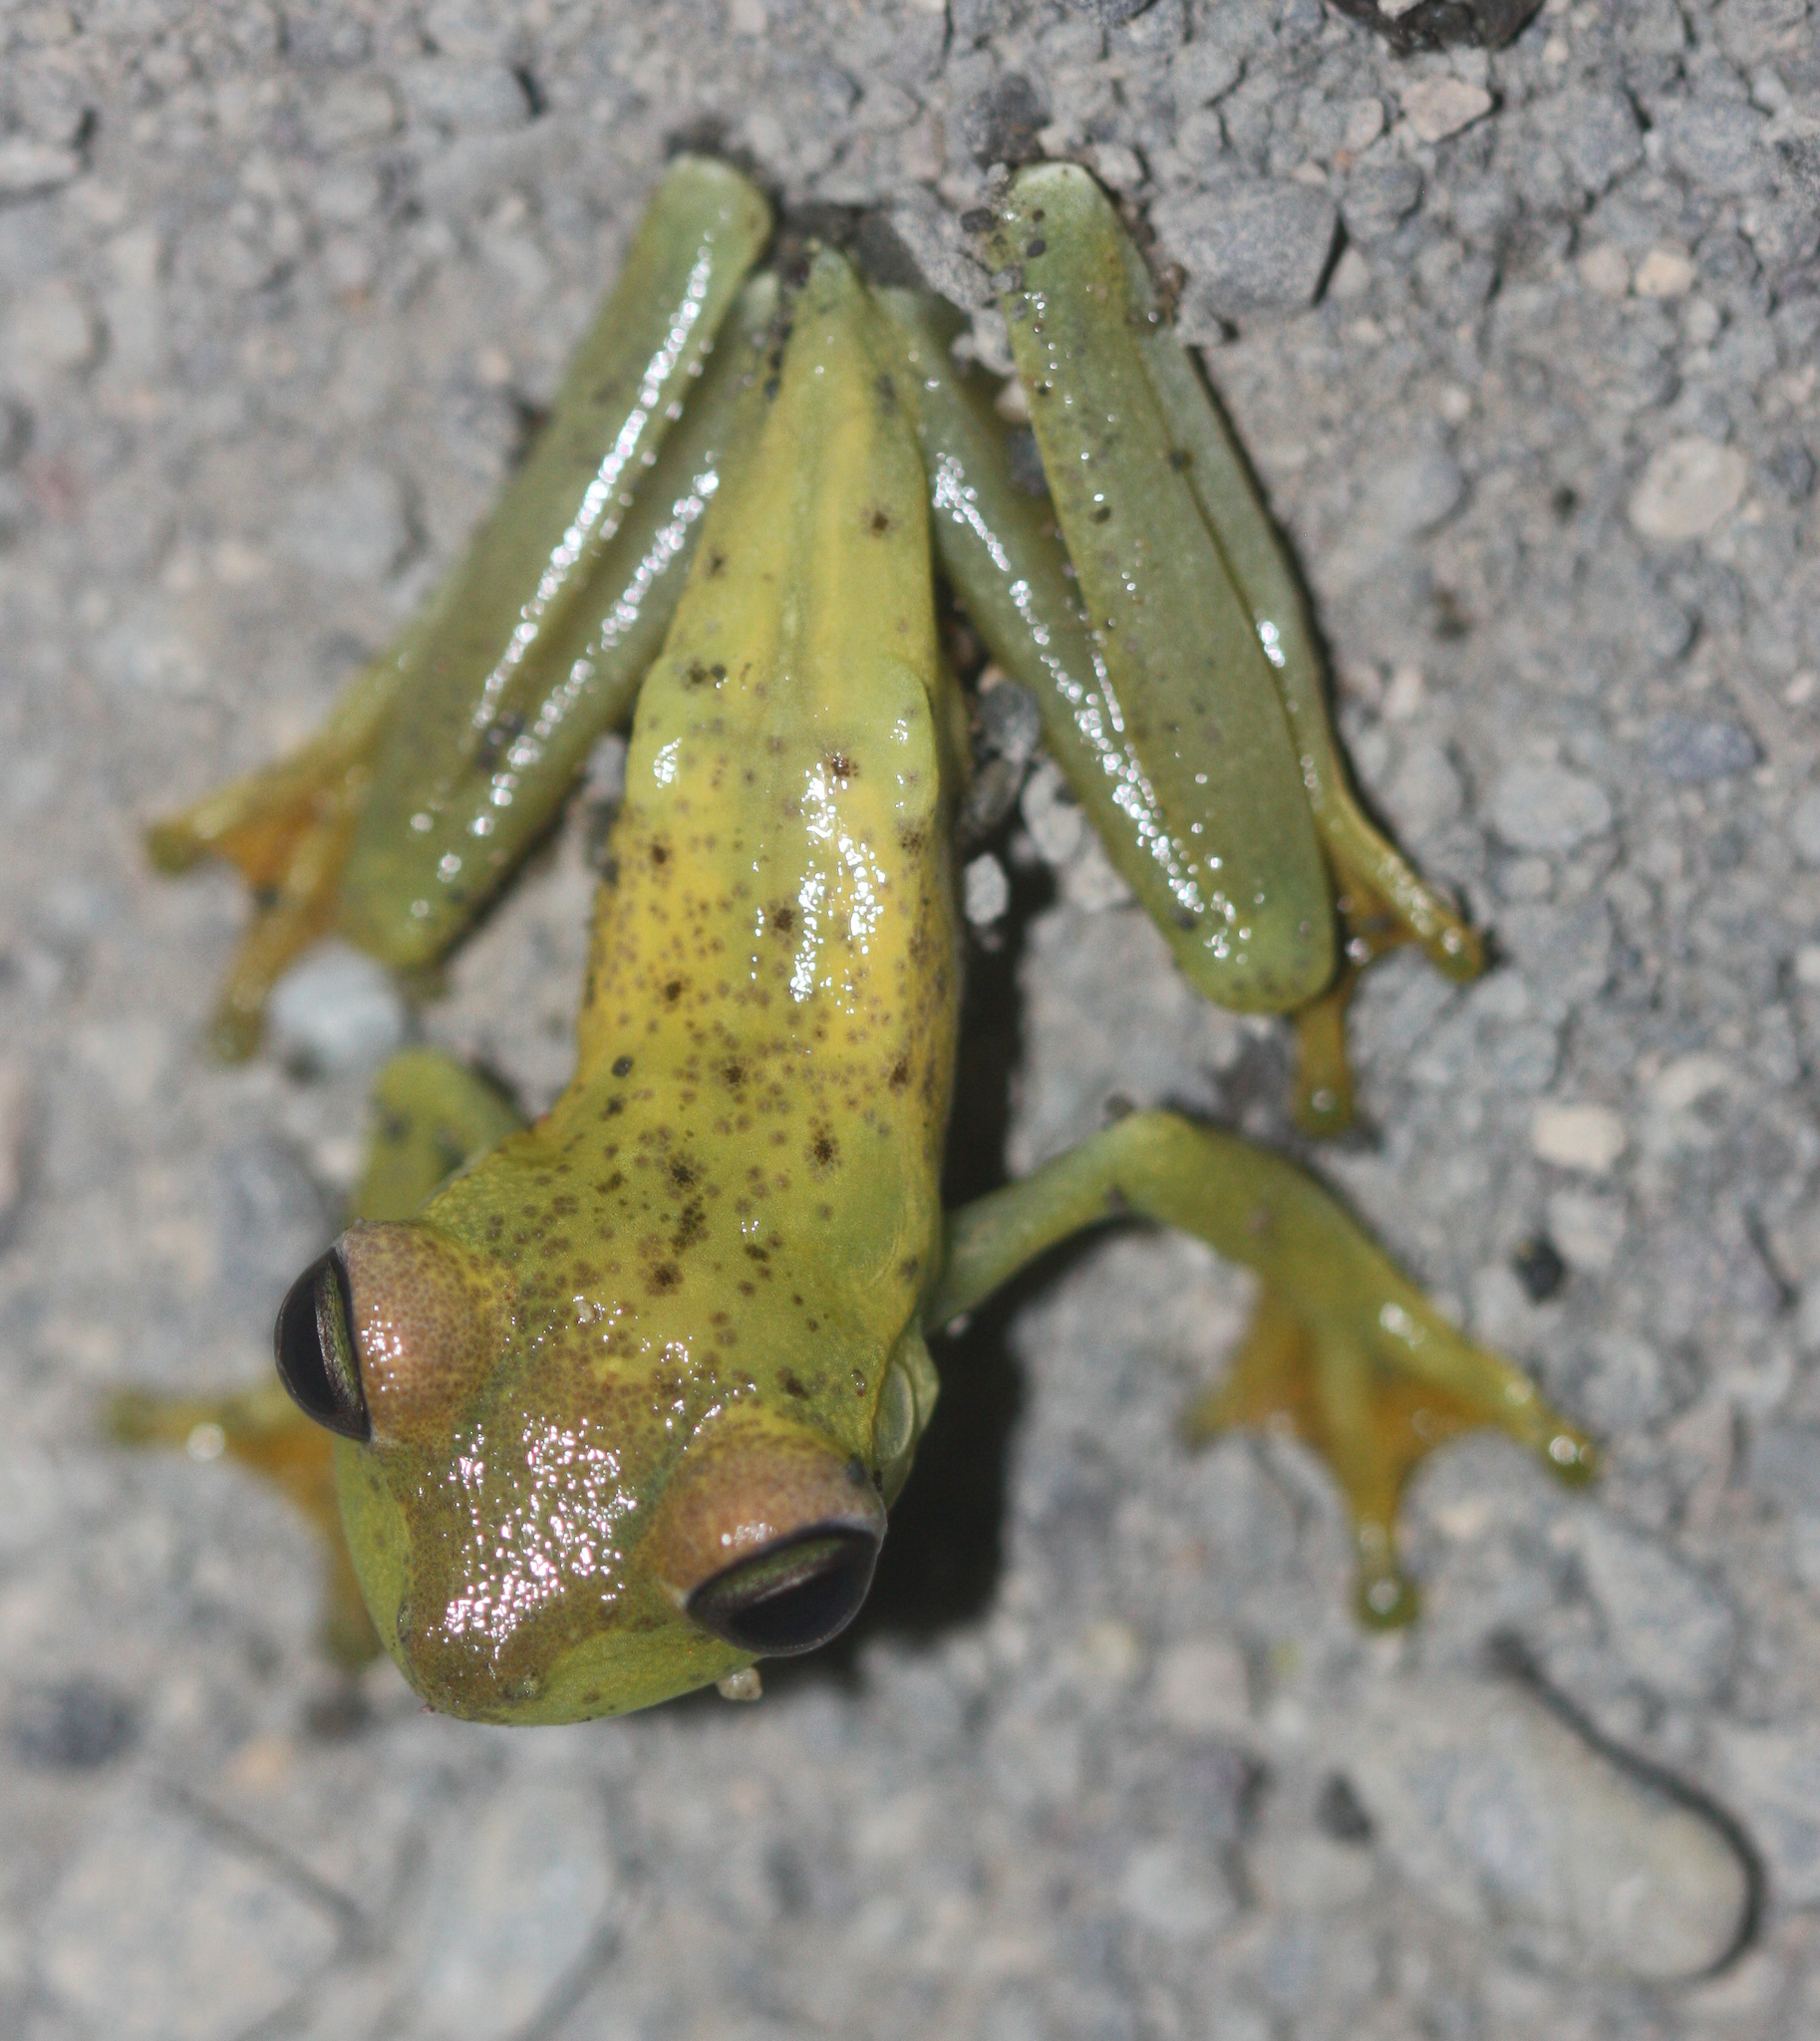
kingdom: Animalia
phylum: Chordata
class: Amphibia
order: Anura
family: Hylidae
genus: Boana
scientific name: Boana rosenbergi
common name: Rosenberg´s gladiator treefrog
